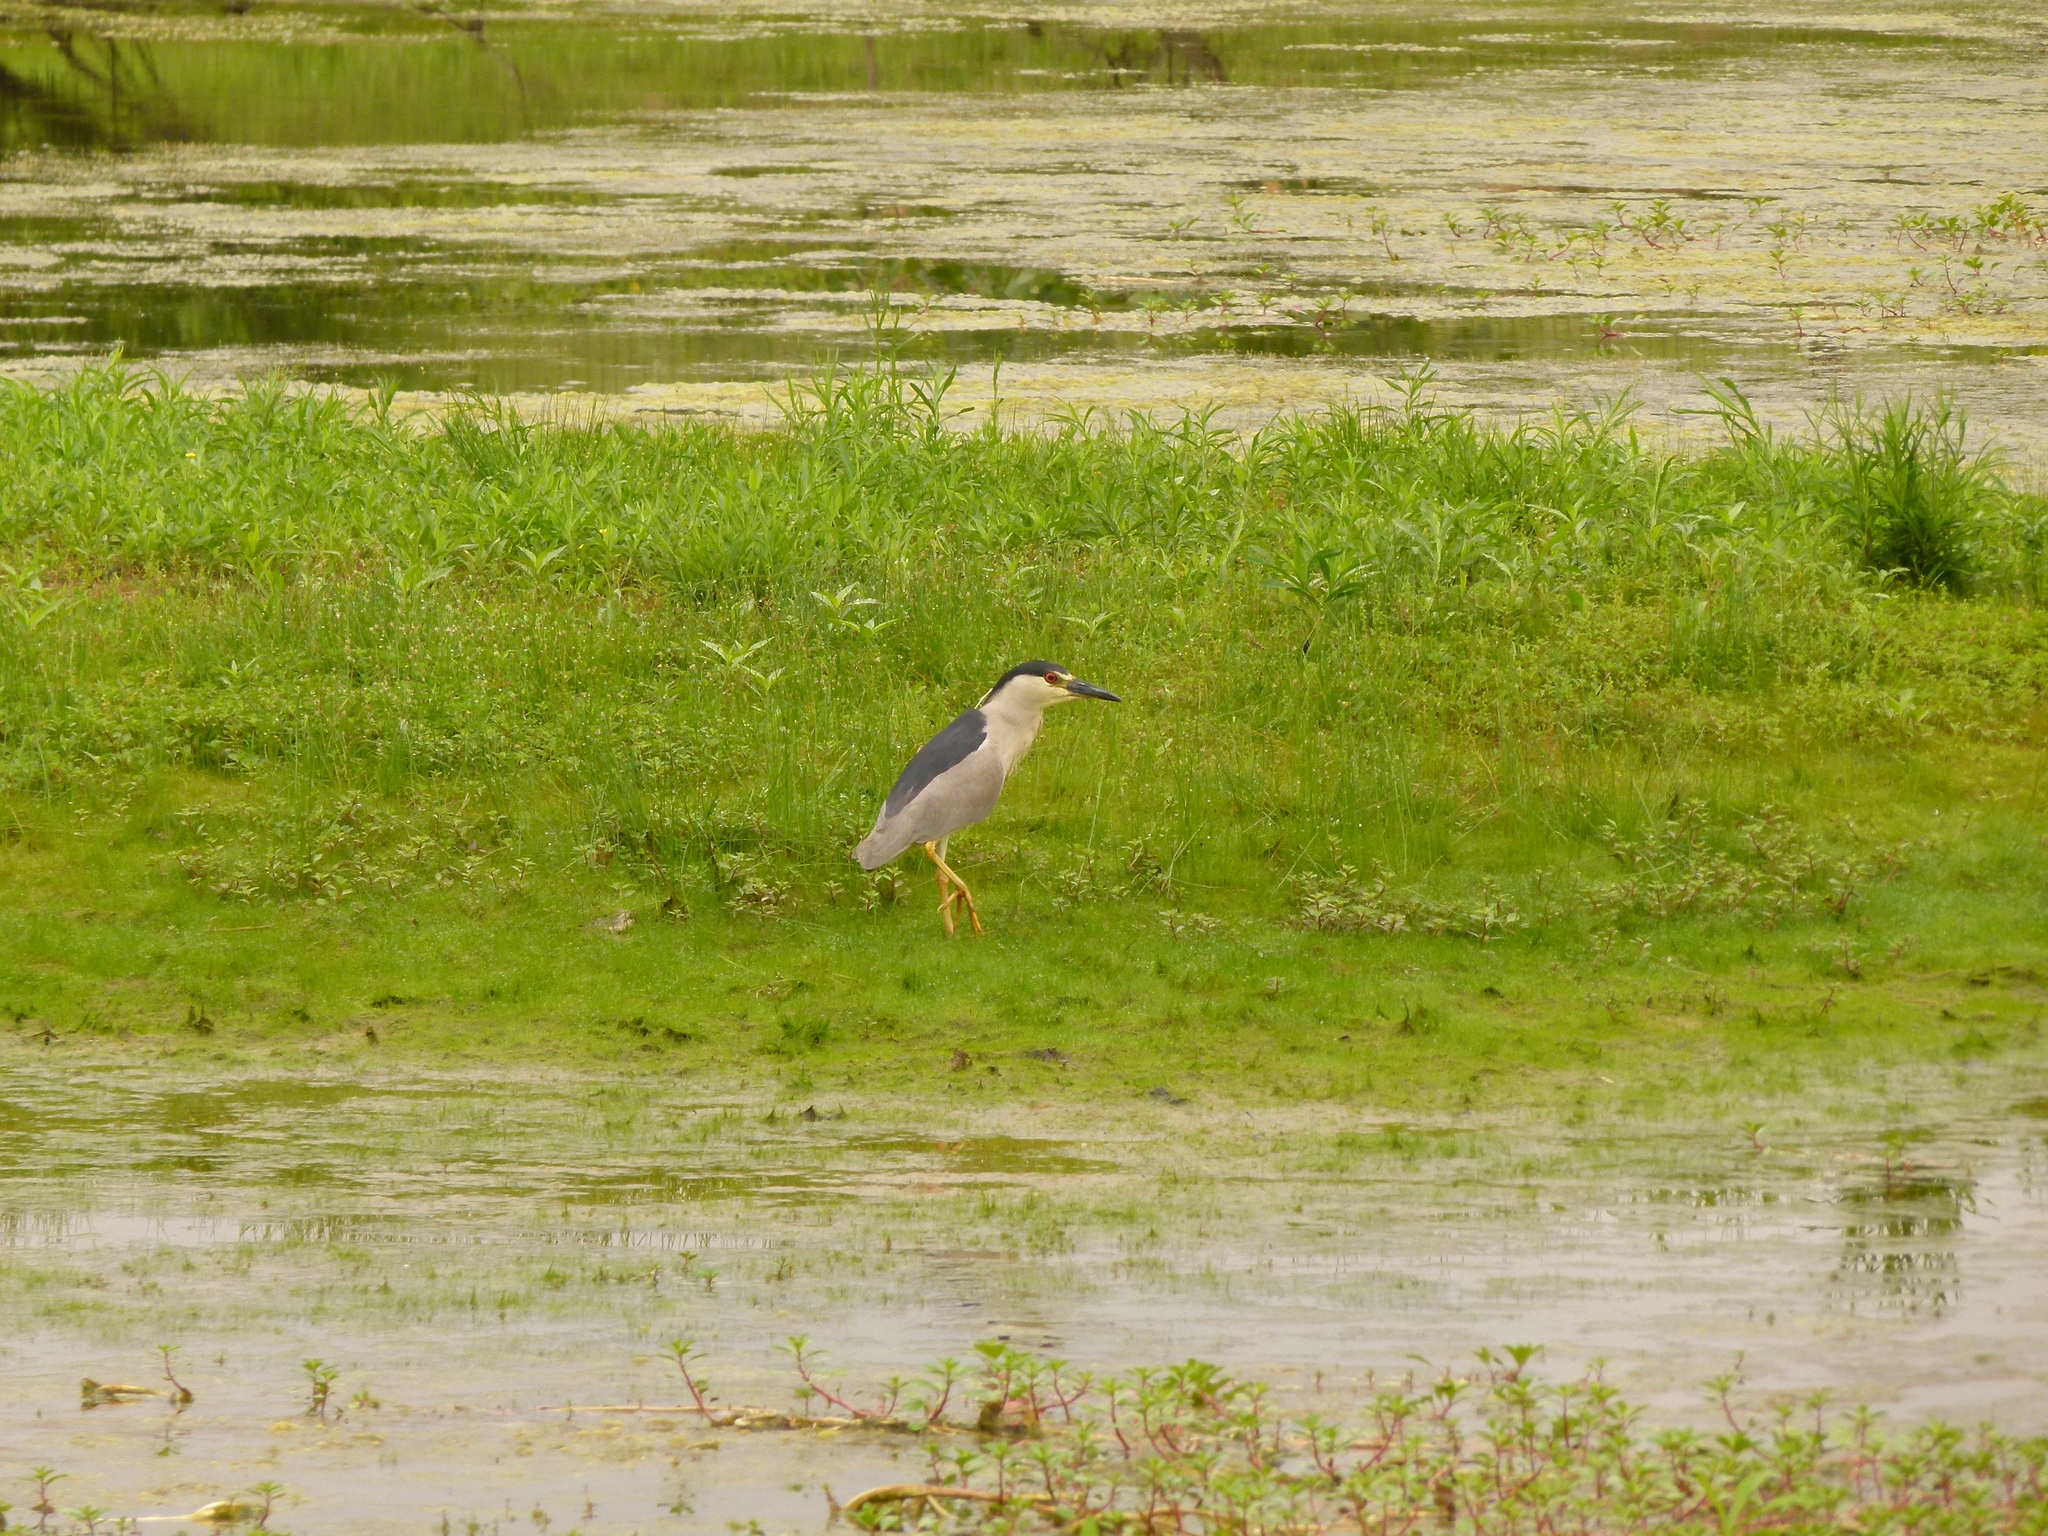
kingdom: Animalia
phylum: Chordata
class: Aves
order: Pelecaniformes
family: Ardeidae
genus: Nycticorax
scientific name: Nycticorax nycticorax
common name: Black-crowned night heron
